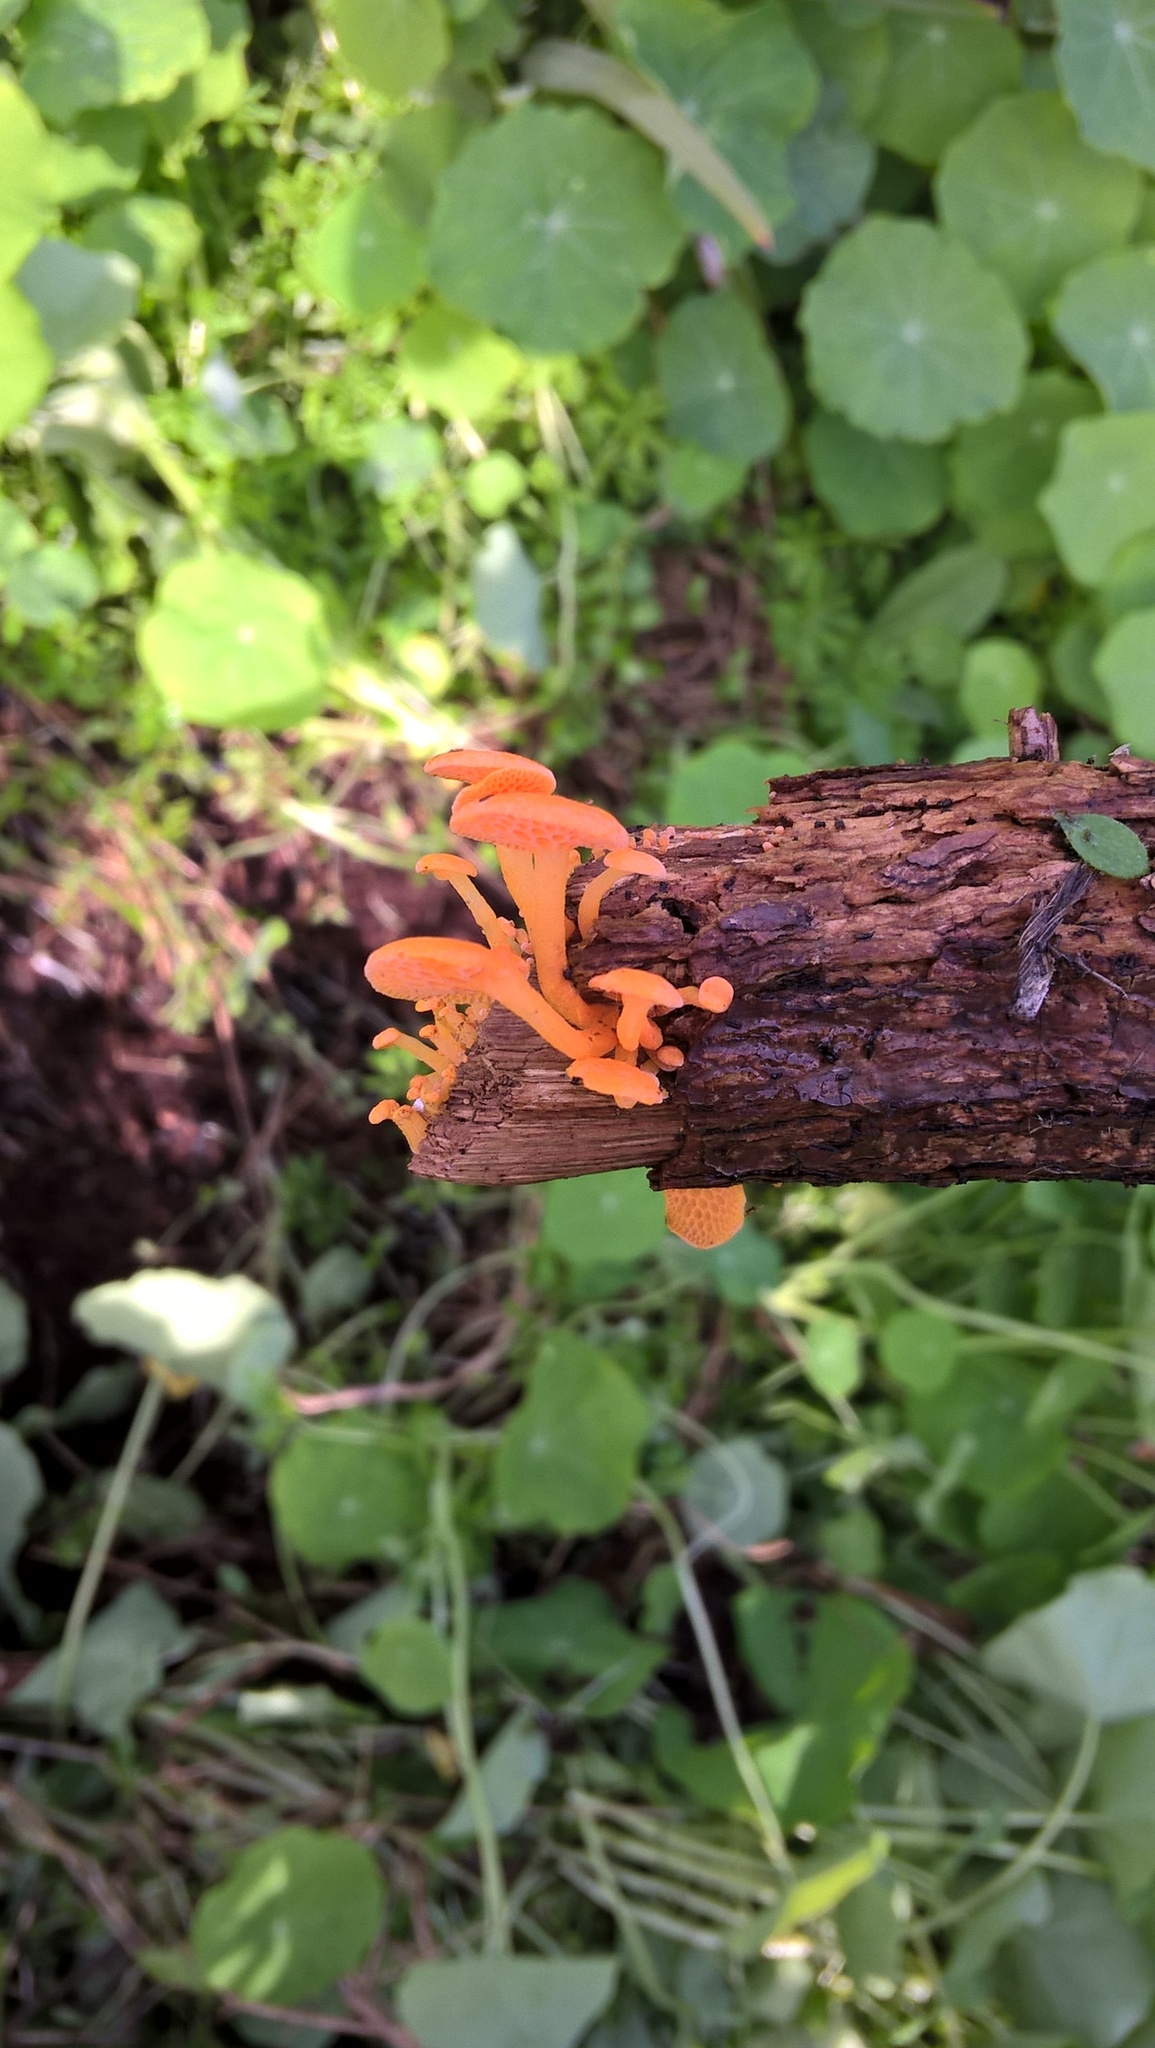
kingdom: Fungi
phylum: Basidiomycota
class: Agaricomycetes
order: Agaricales
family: Mycenaceae
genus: Favolaschia
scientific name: Favolaschia claudopus
